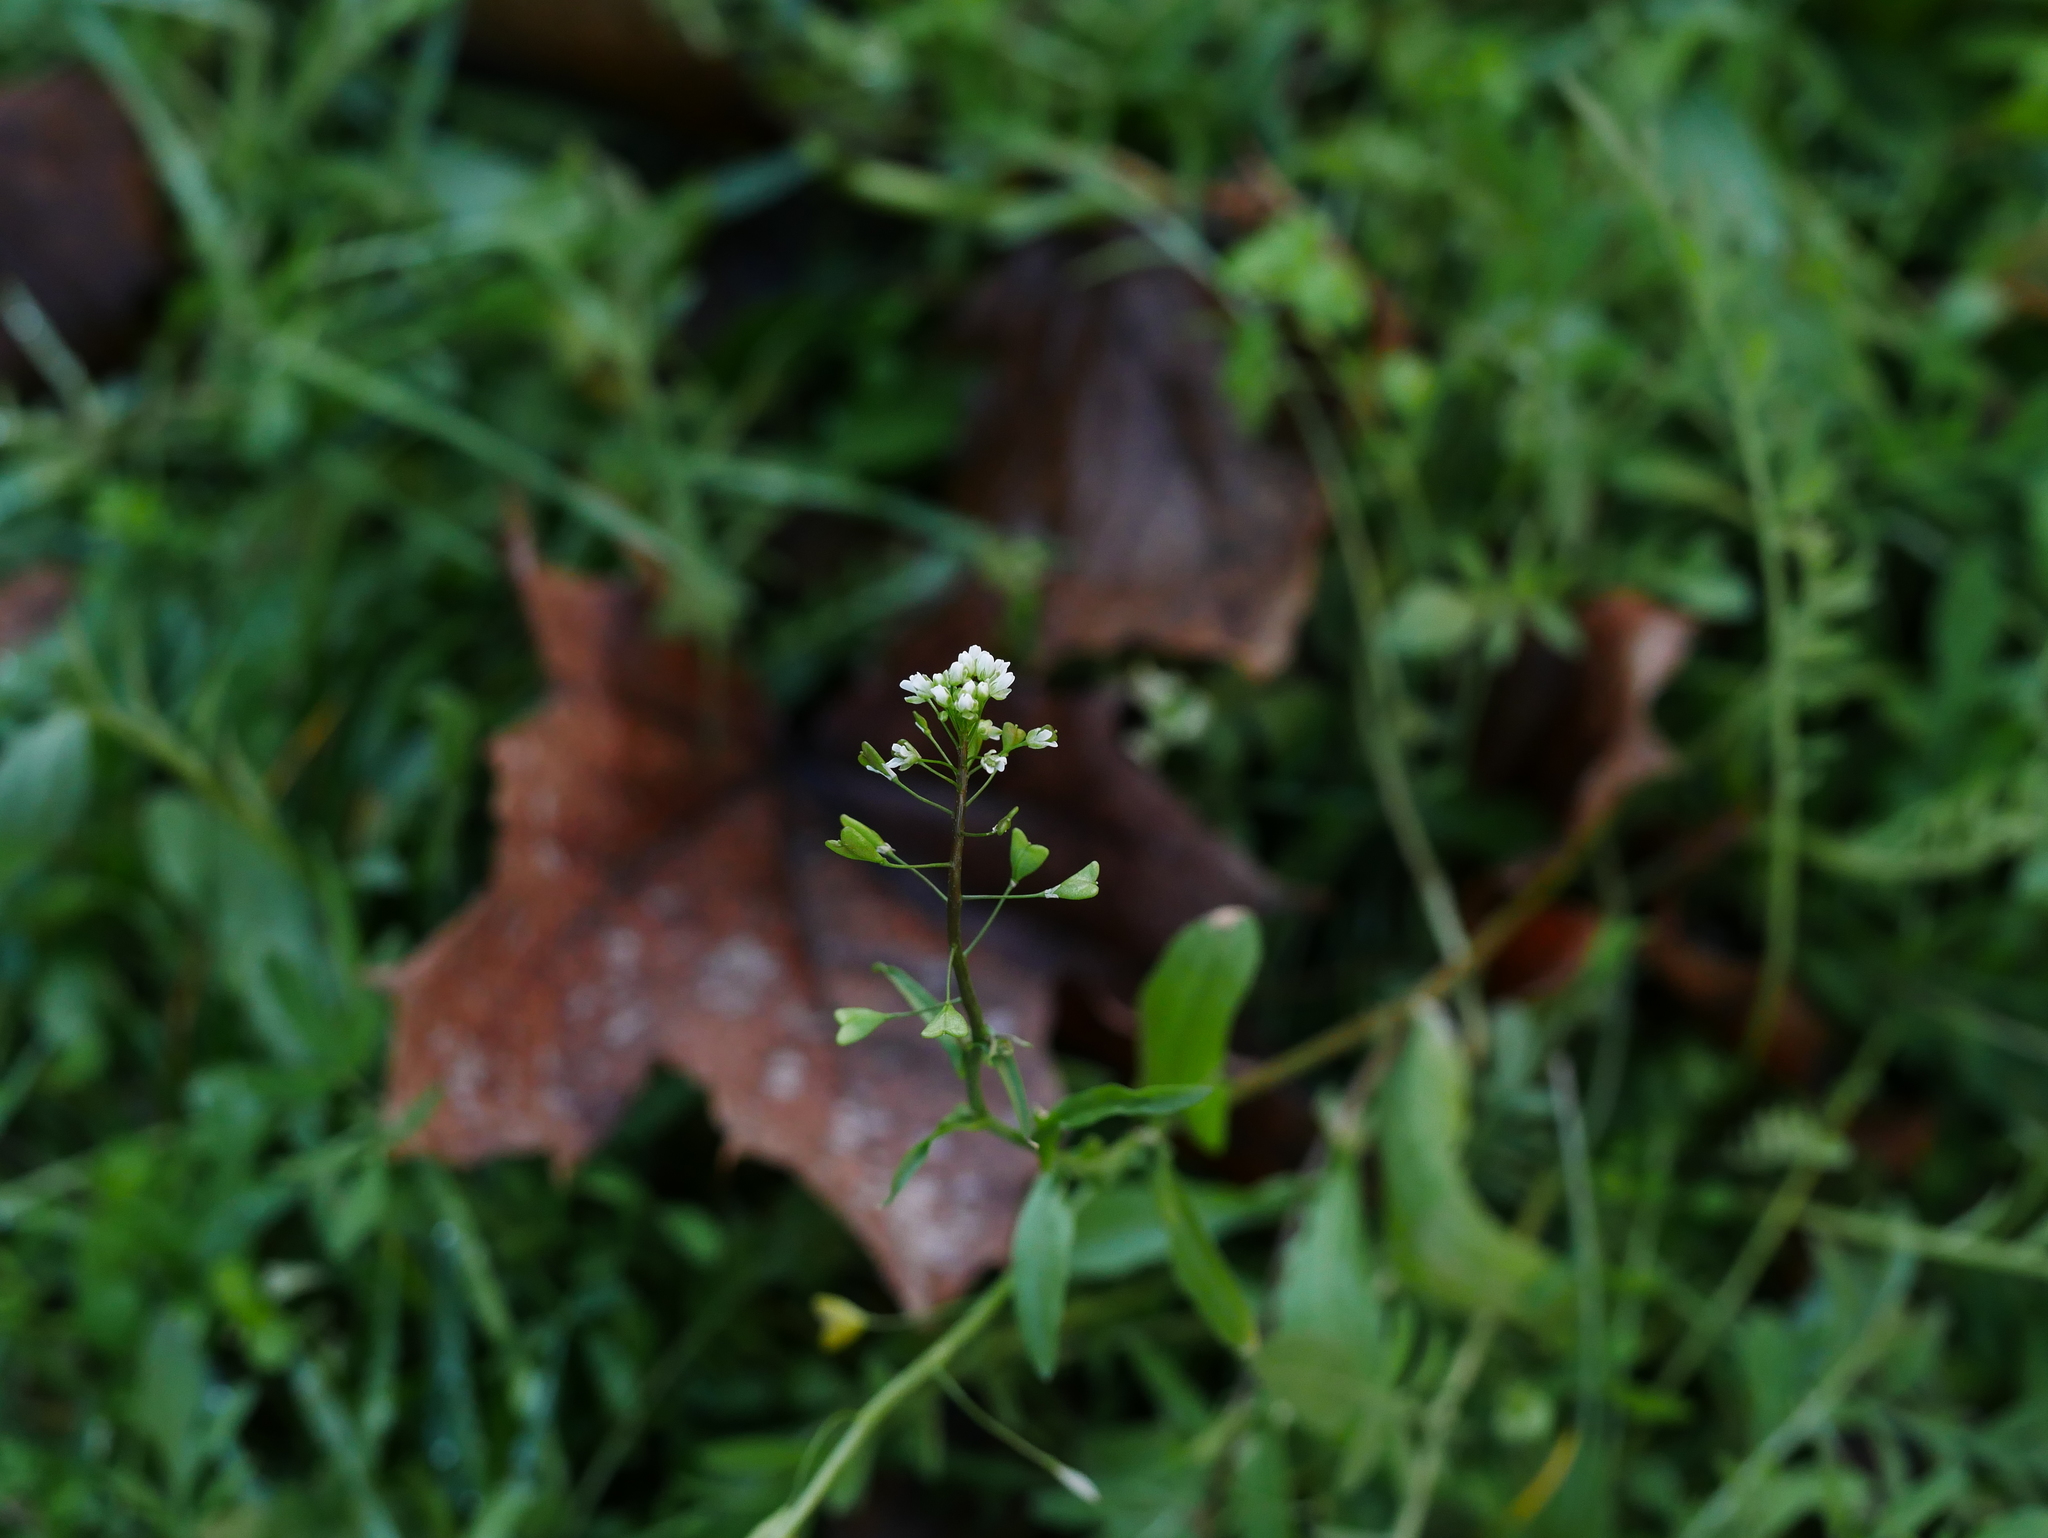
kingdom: Plantae
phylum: Tracheophyta
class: Magnoliopsida
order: Brassicales
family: Brassicaceae
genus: Capsella
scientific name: Capsella bursa-pastoris
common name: Shepherd's purse
